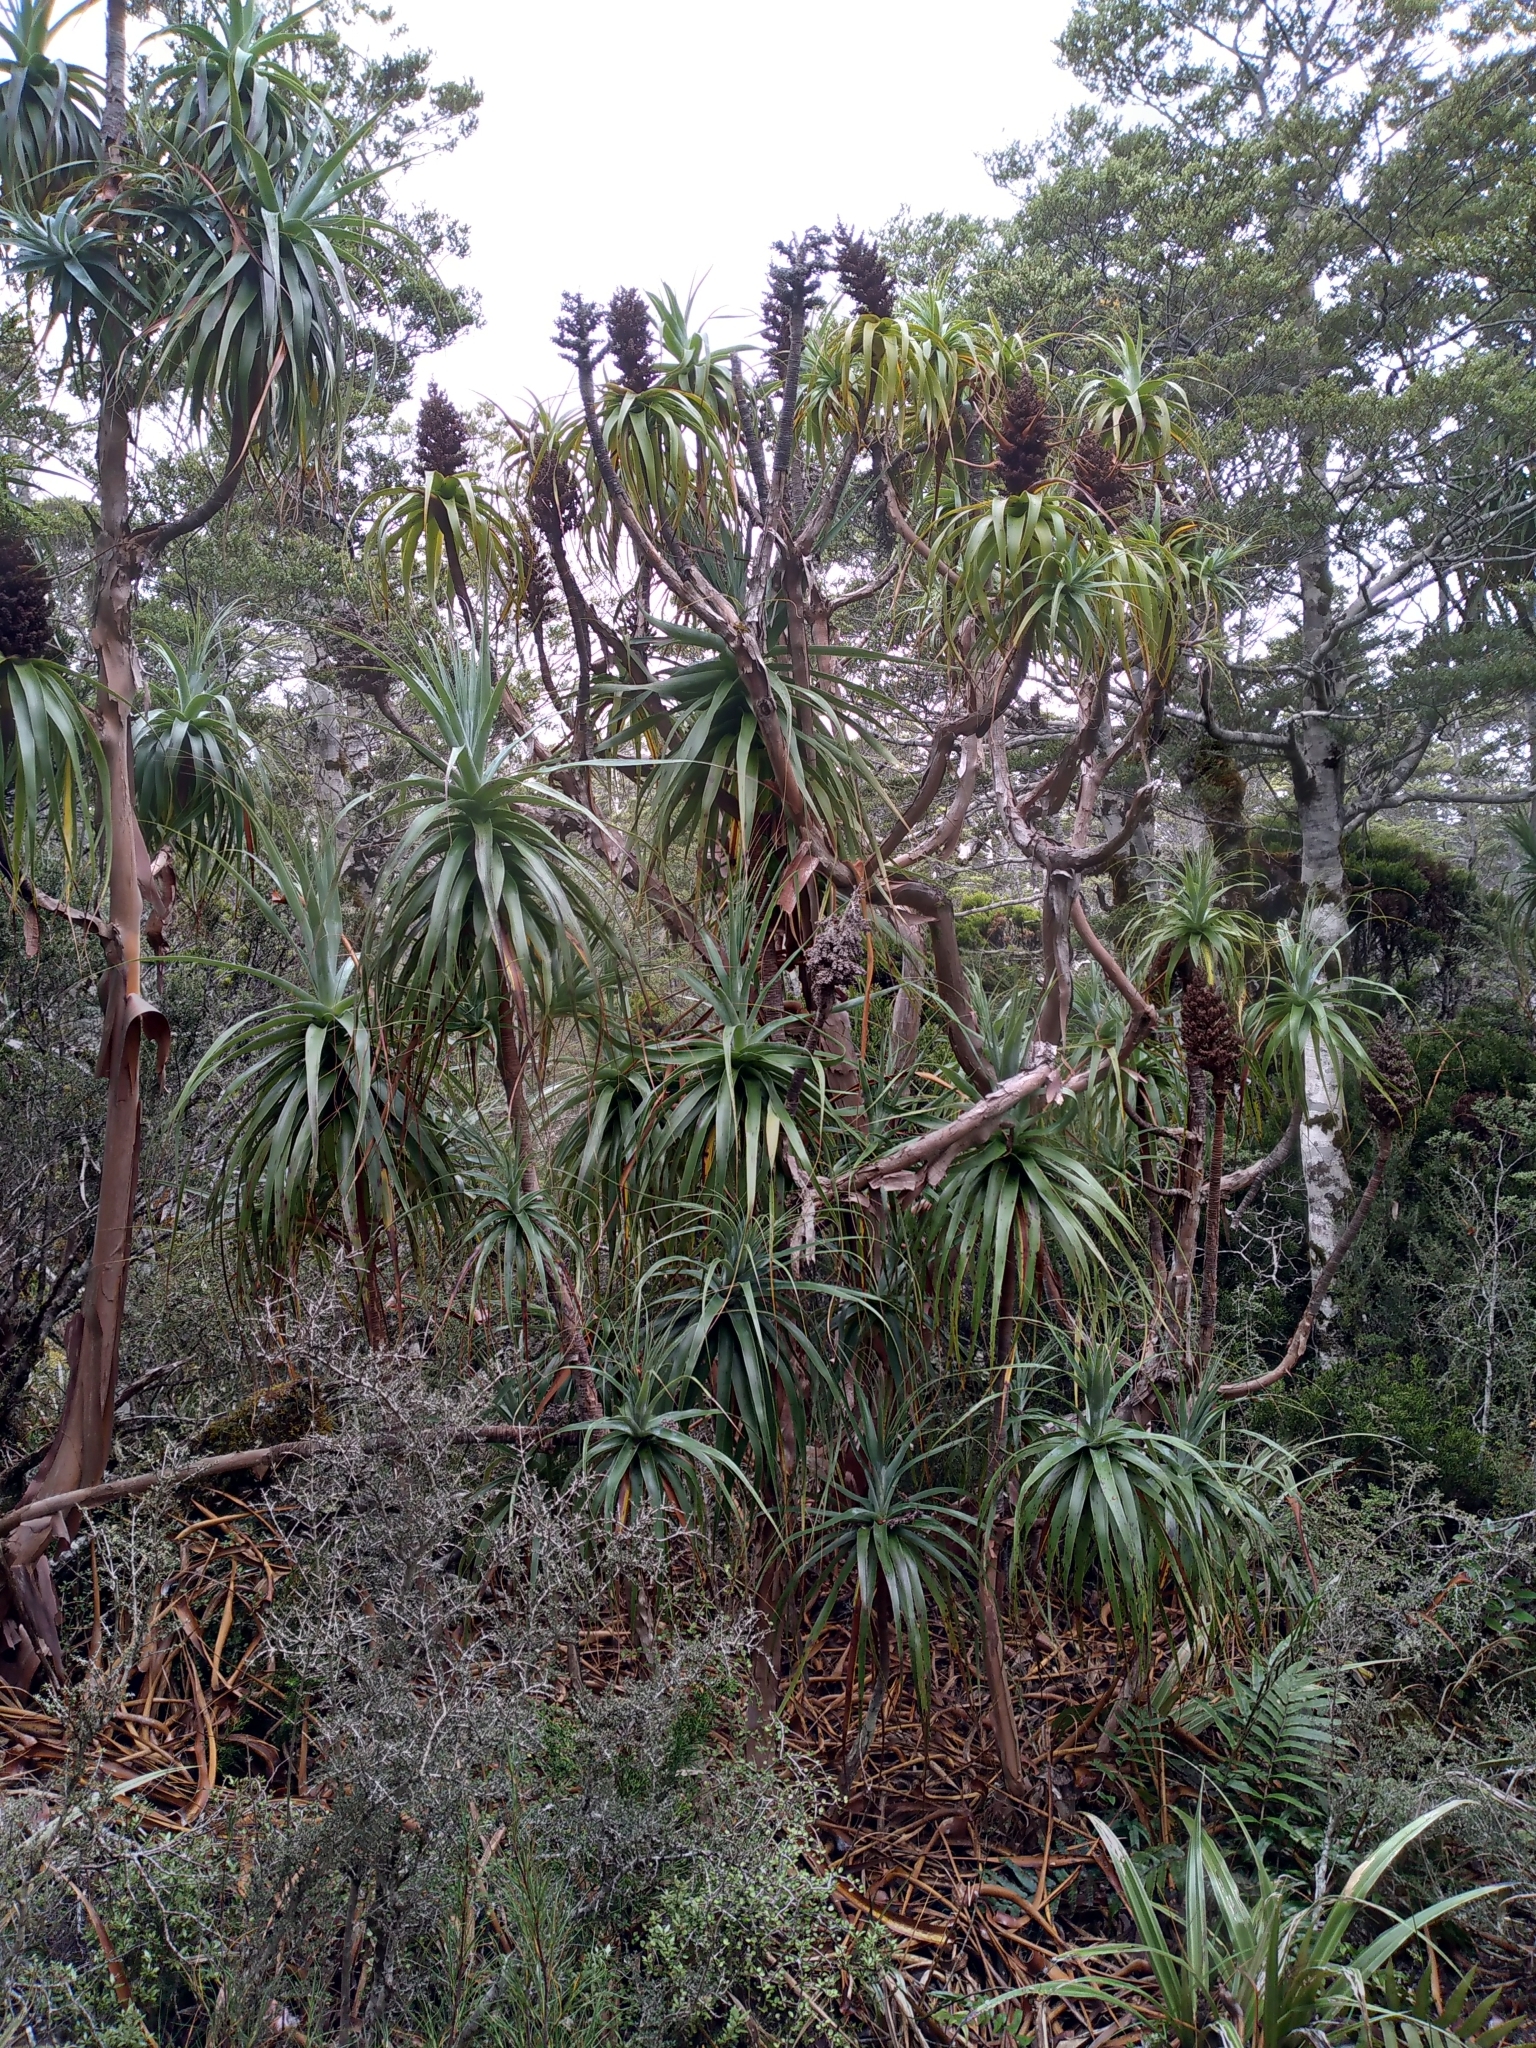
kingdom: Plantae
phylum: Tracheophyta
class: Magnoliopsida
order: Ericales
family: Ericaceae
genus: Dracophyllum
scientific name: Dracophyllum traversii
